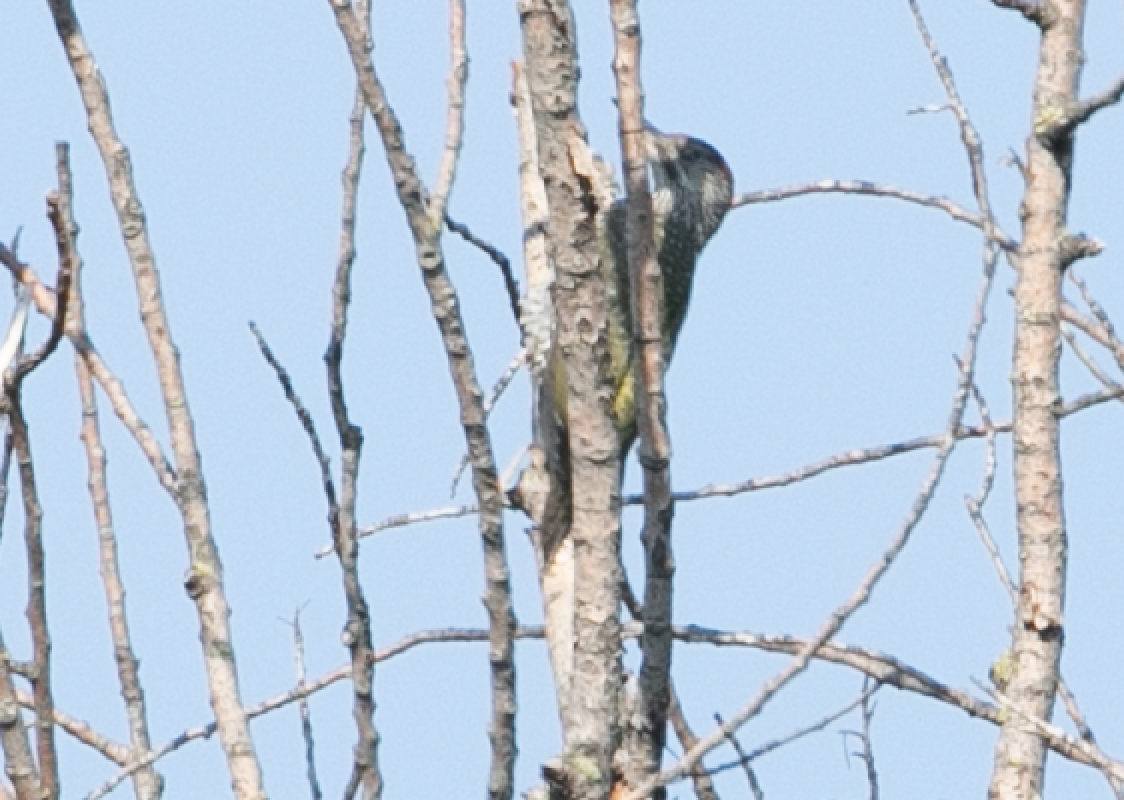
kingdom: Animalia
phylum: Chordata
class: Aves
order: Piciformes
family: Picidae
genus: Picus
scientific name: Picus viridis
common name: European green woodpecker
